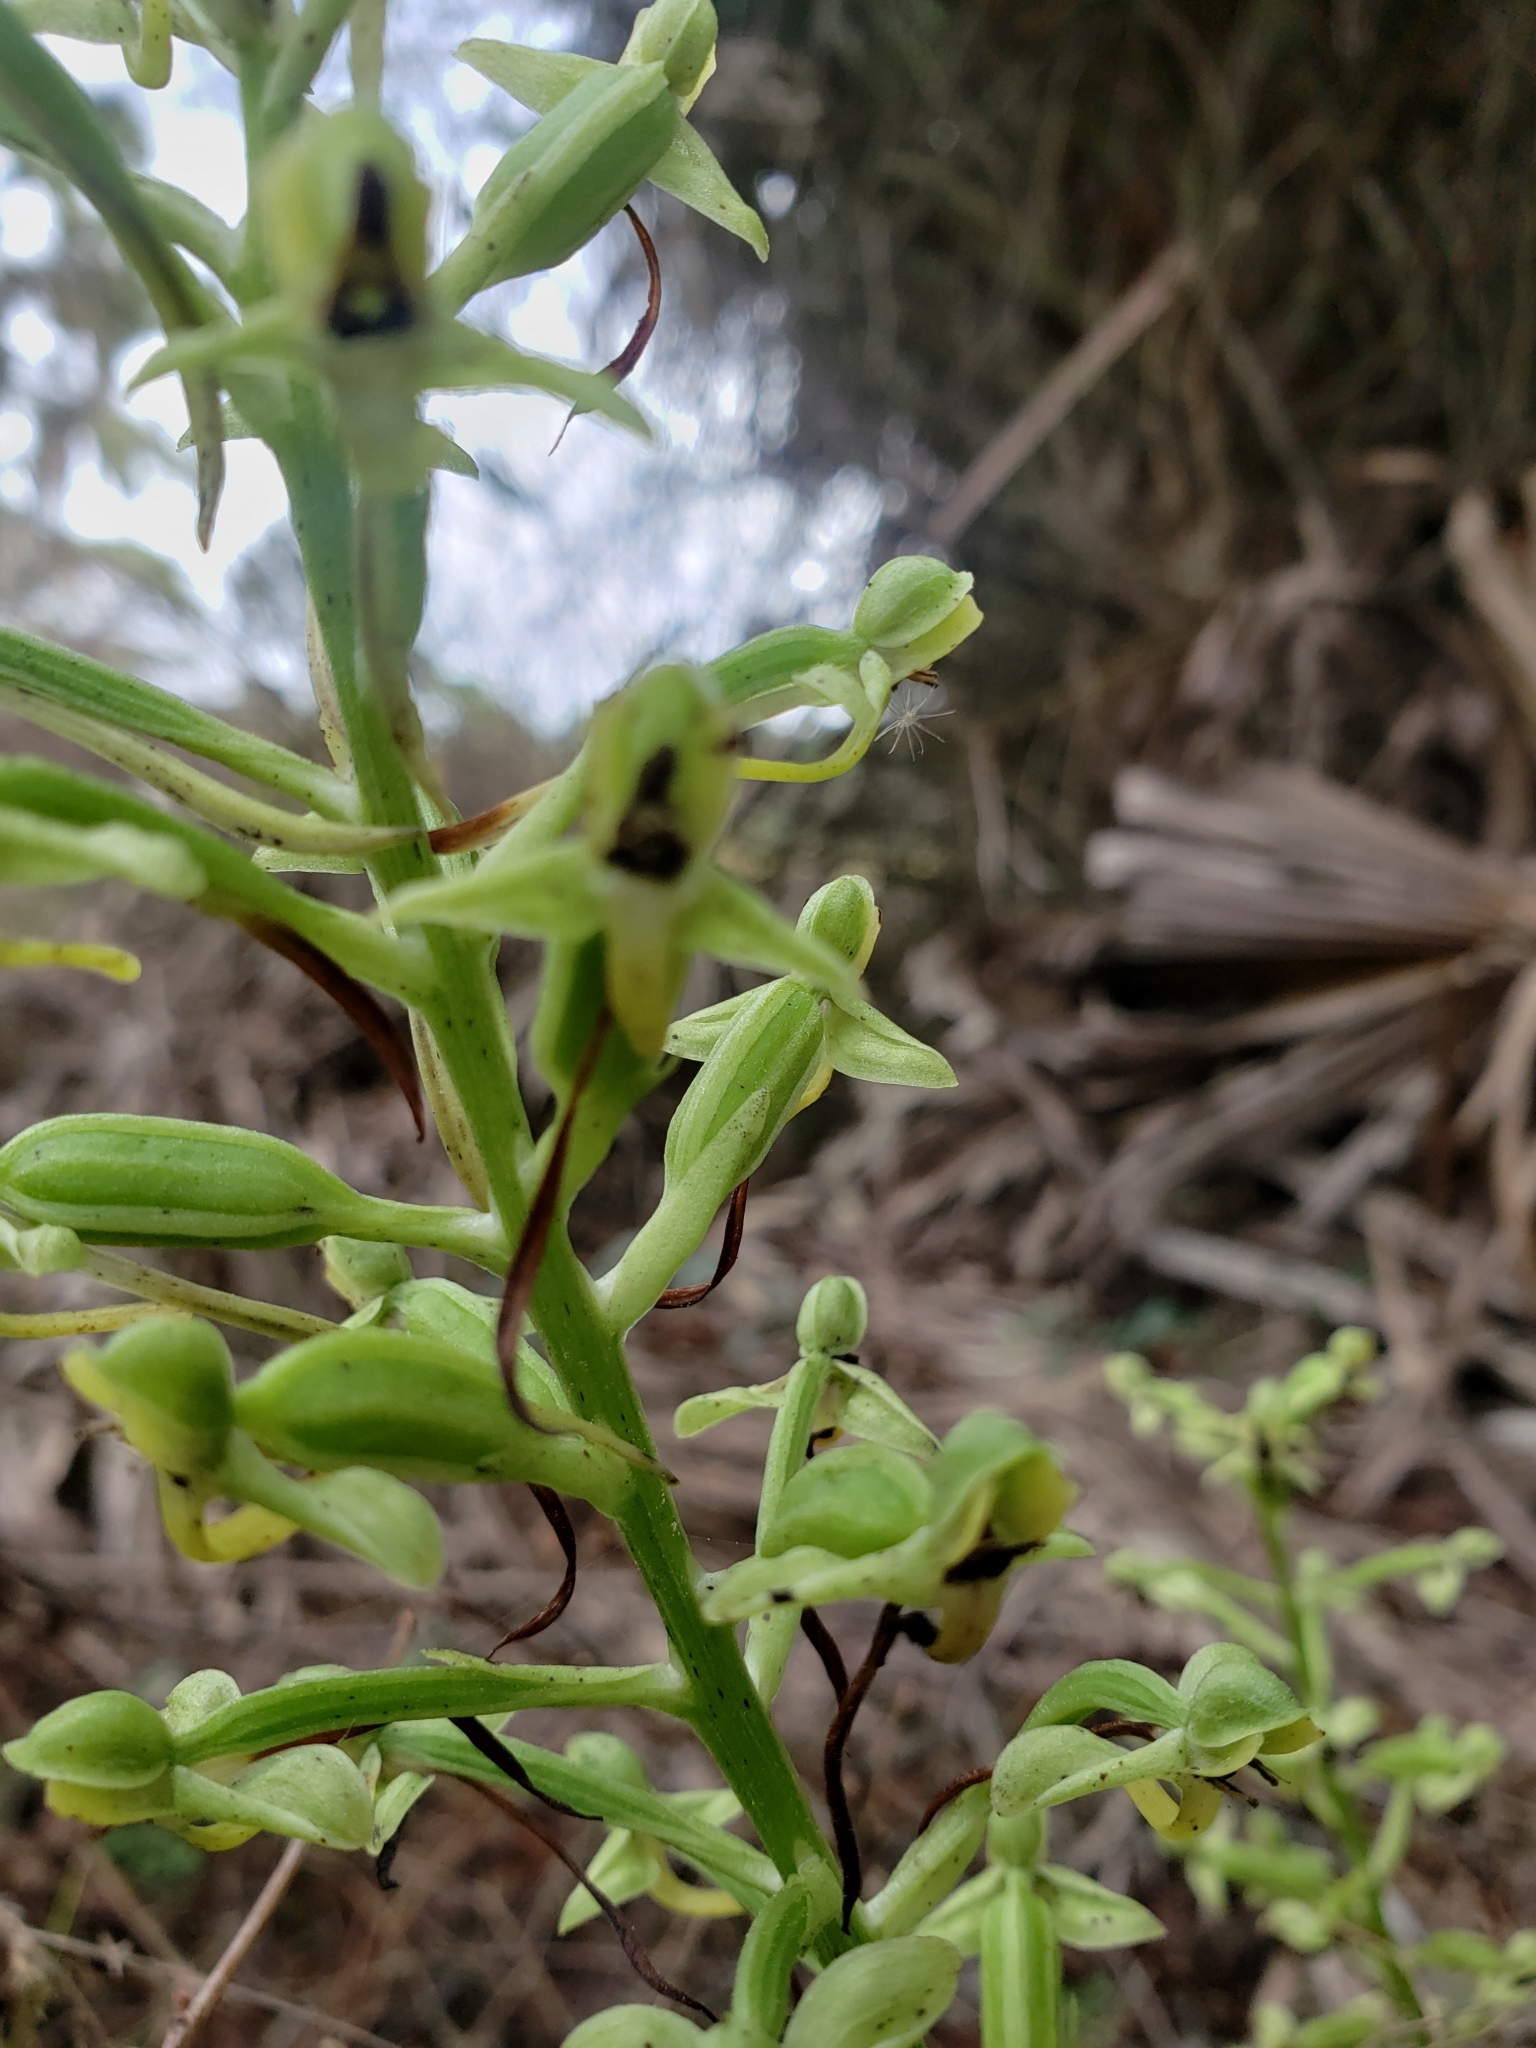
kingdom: Plantae
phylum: Tracheophyta
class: Liliopsida
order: Asparagales
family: Orchidaceae
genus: Habenaria
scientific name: Habenaria floribunda
